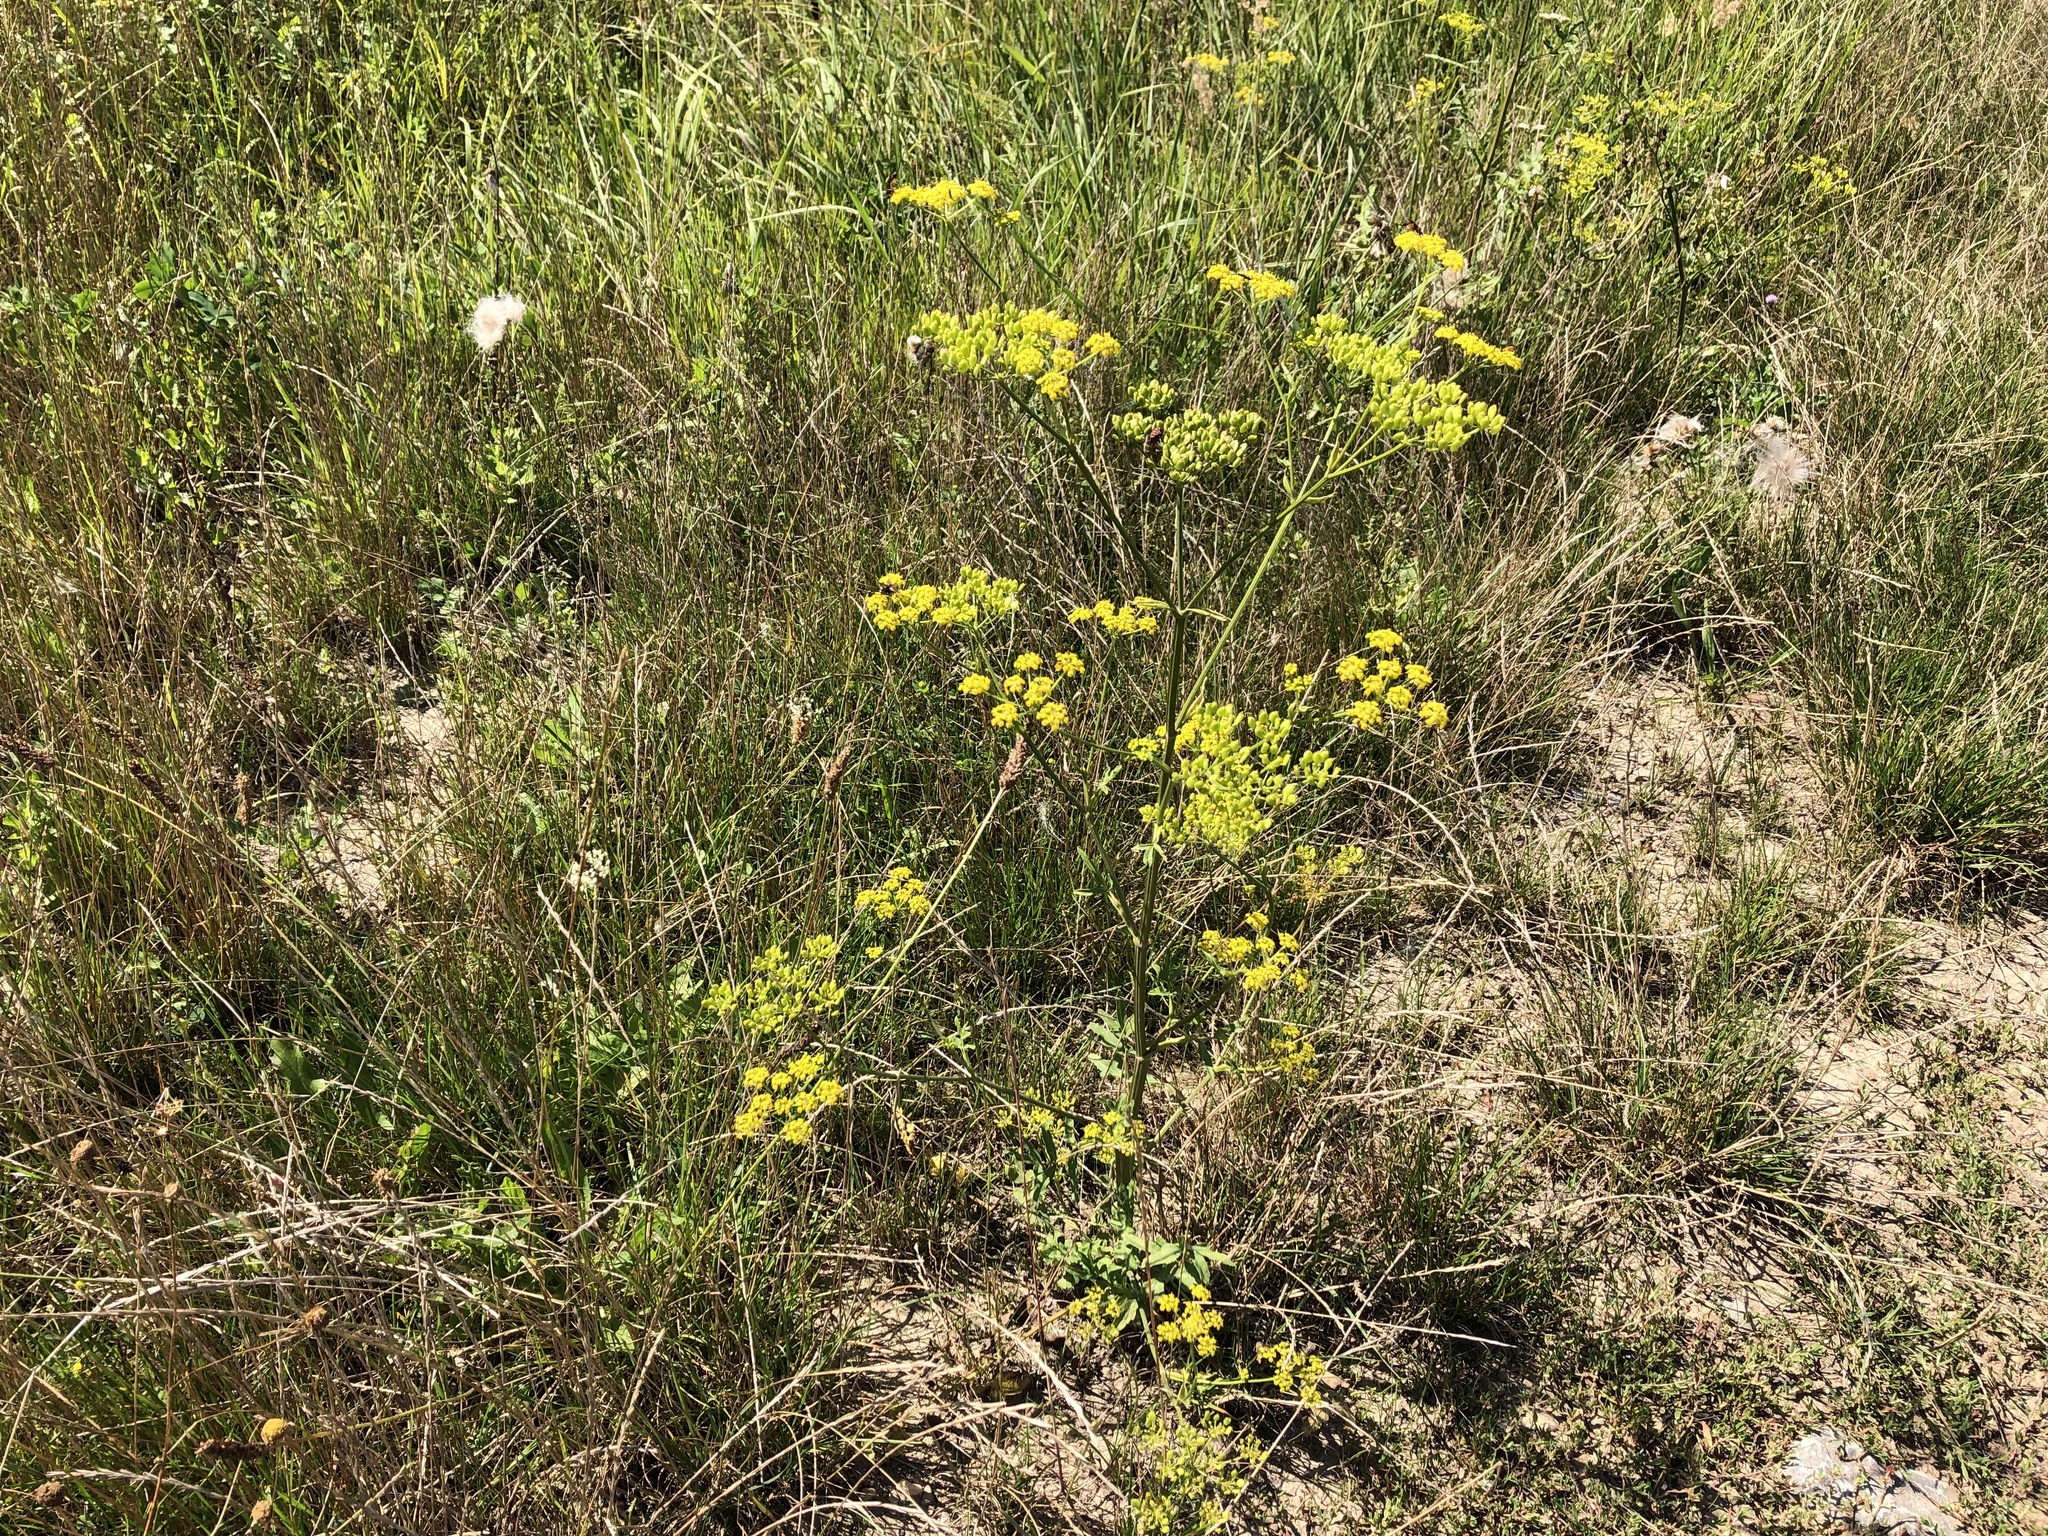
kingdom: Plantae
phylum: Tracheophyta
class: Magnoliopsida
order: Apiales
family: Apiaceae
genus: Pastinaca
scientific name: Pastinaca sativa
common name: Wild parsnip
